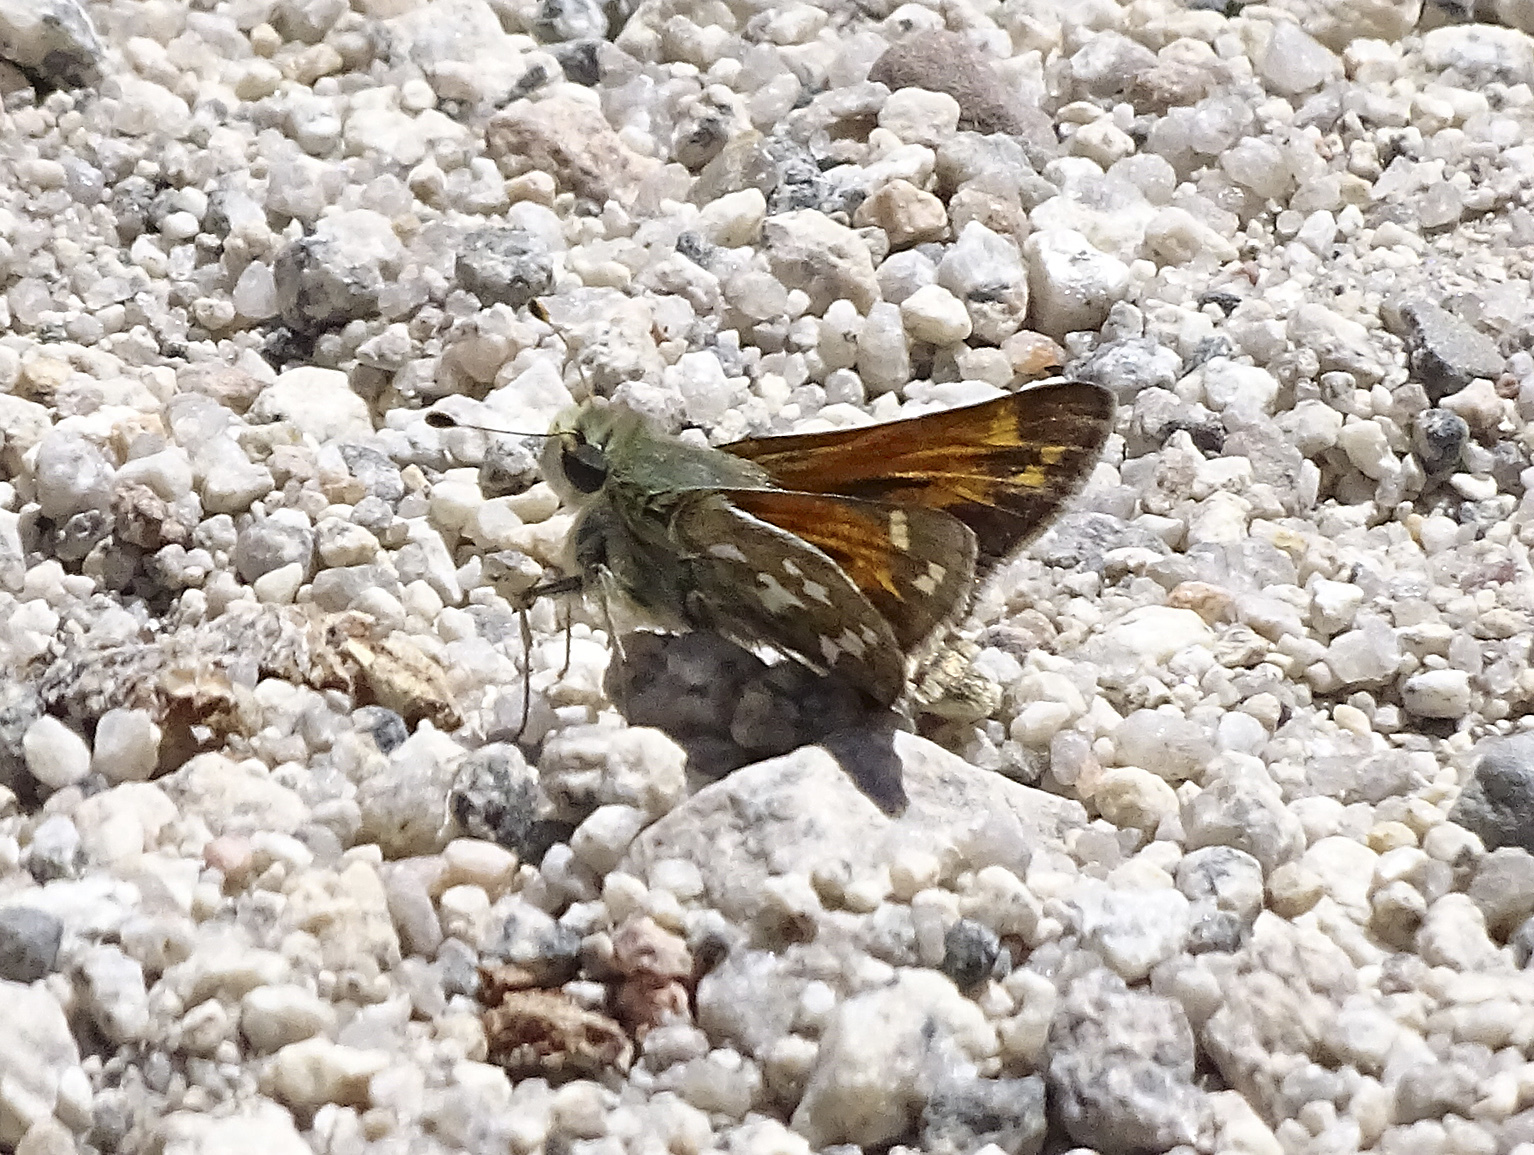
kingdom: Animalia
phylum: Arthropoda
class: Insecta
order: Lepidoptera
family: Hesperiidae
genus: Hesperia
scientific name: Hesperia juba
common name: Juba skipper
